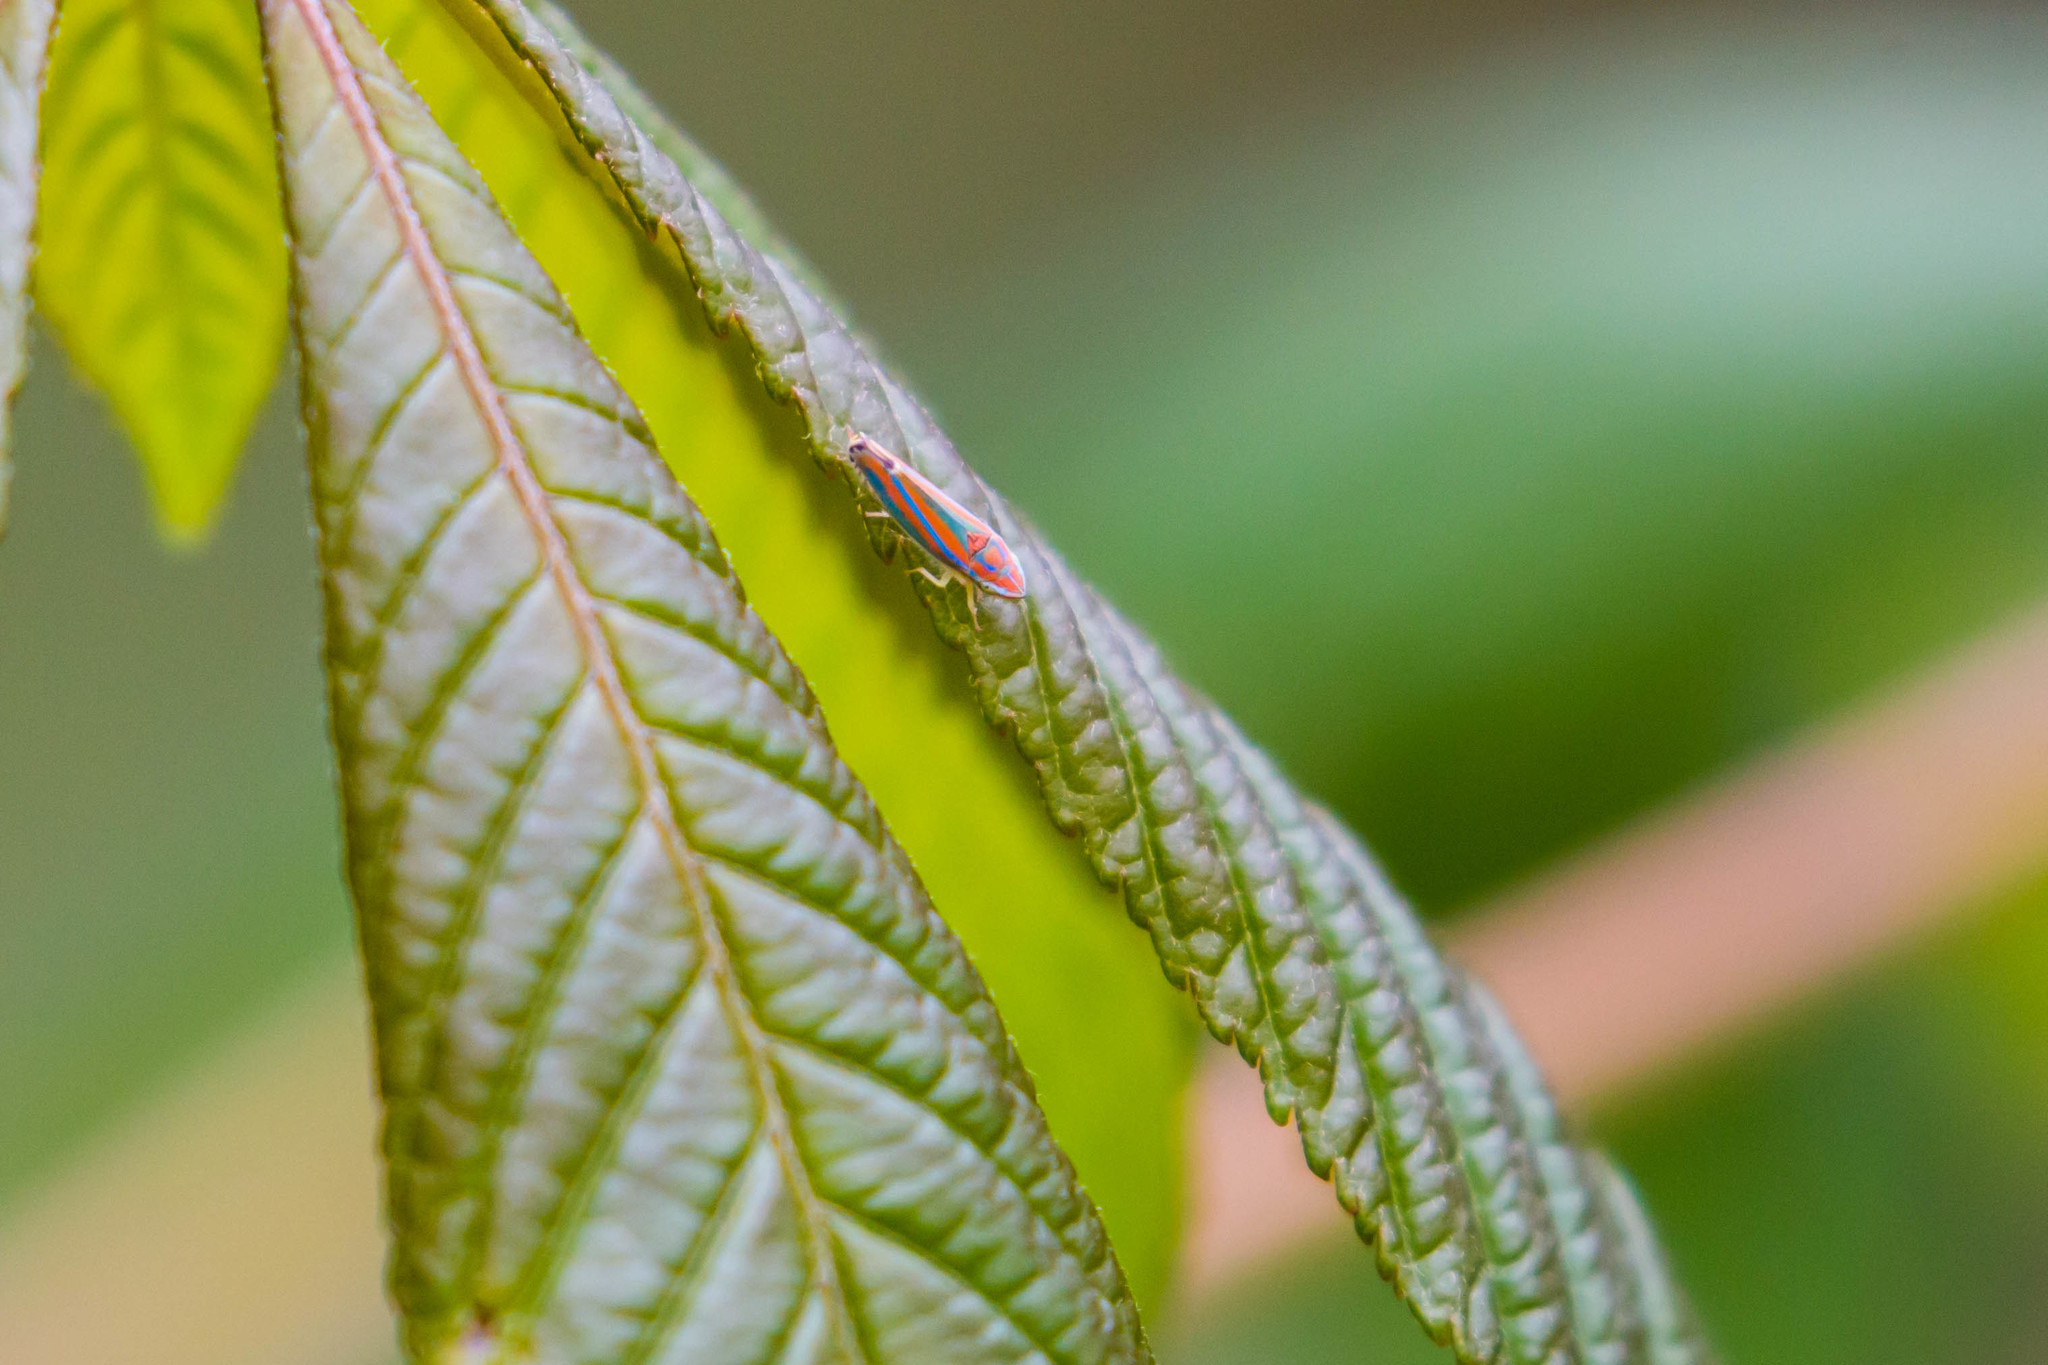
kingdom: Animalia
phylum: Arthropoda
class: Insecta
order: Hemiptera
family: Cicadellidae
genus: Graphocephala
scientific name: Graphocephala versuta
